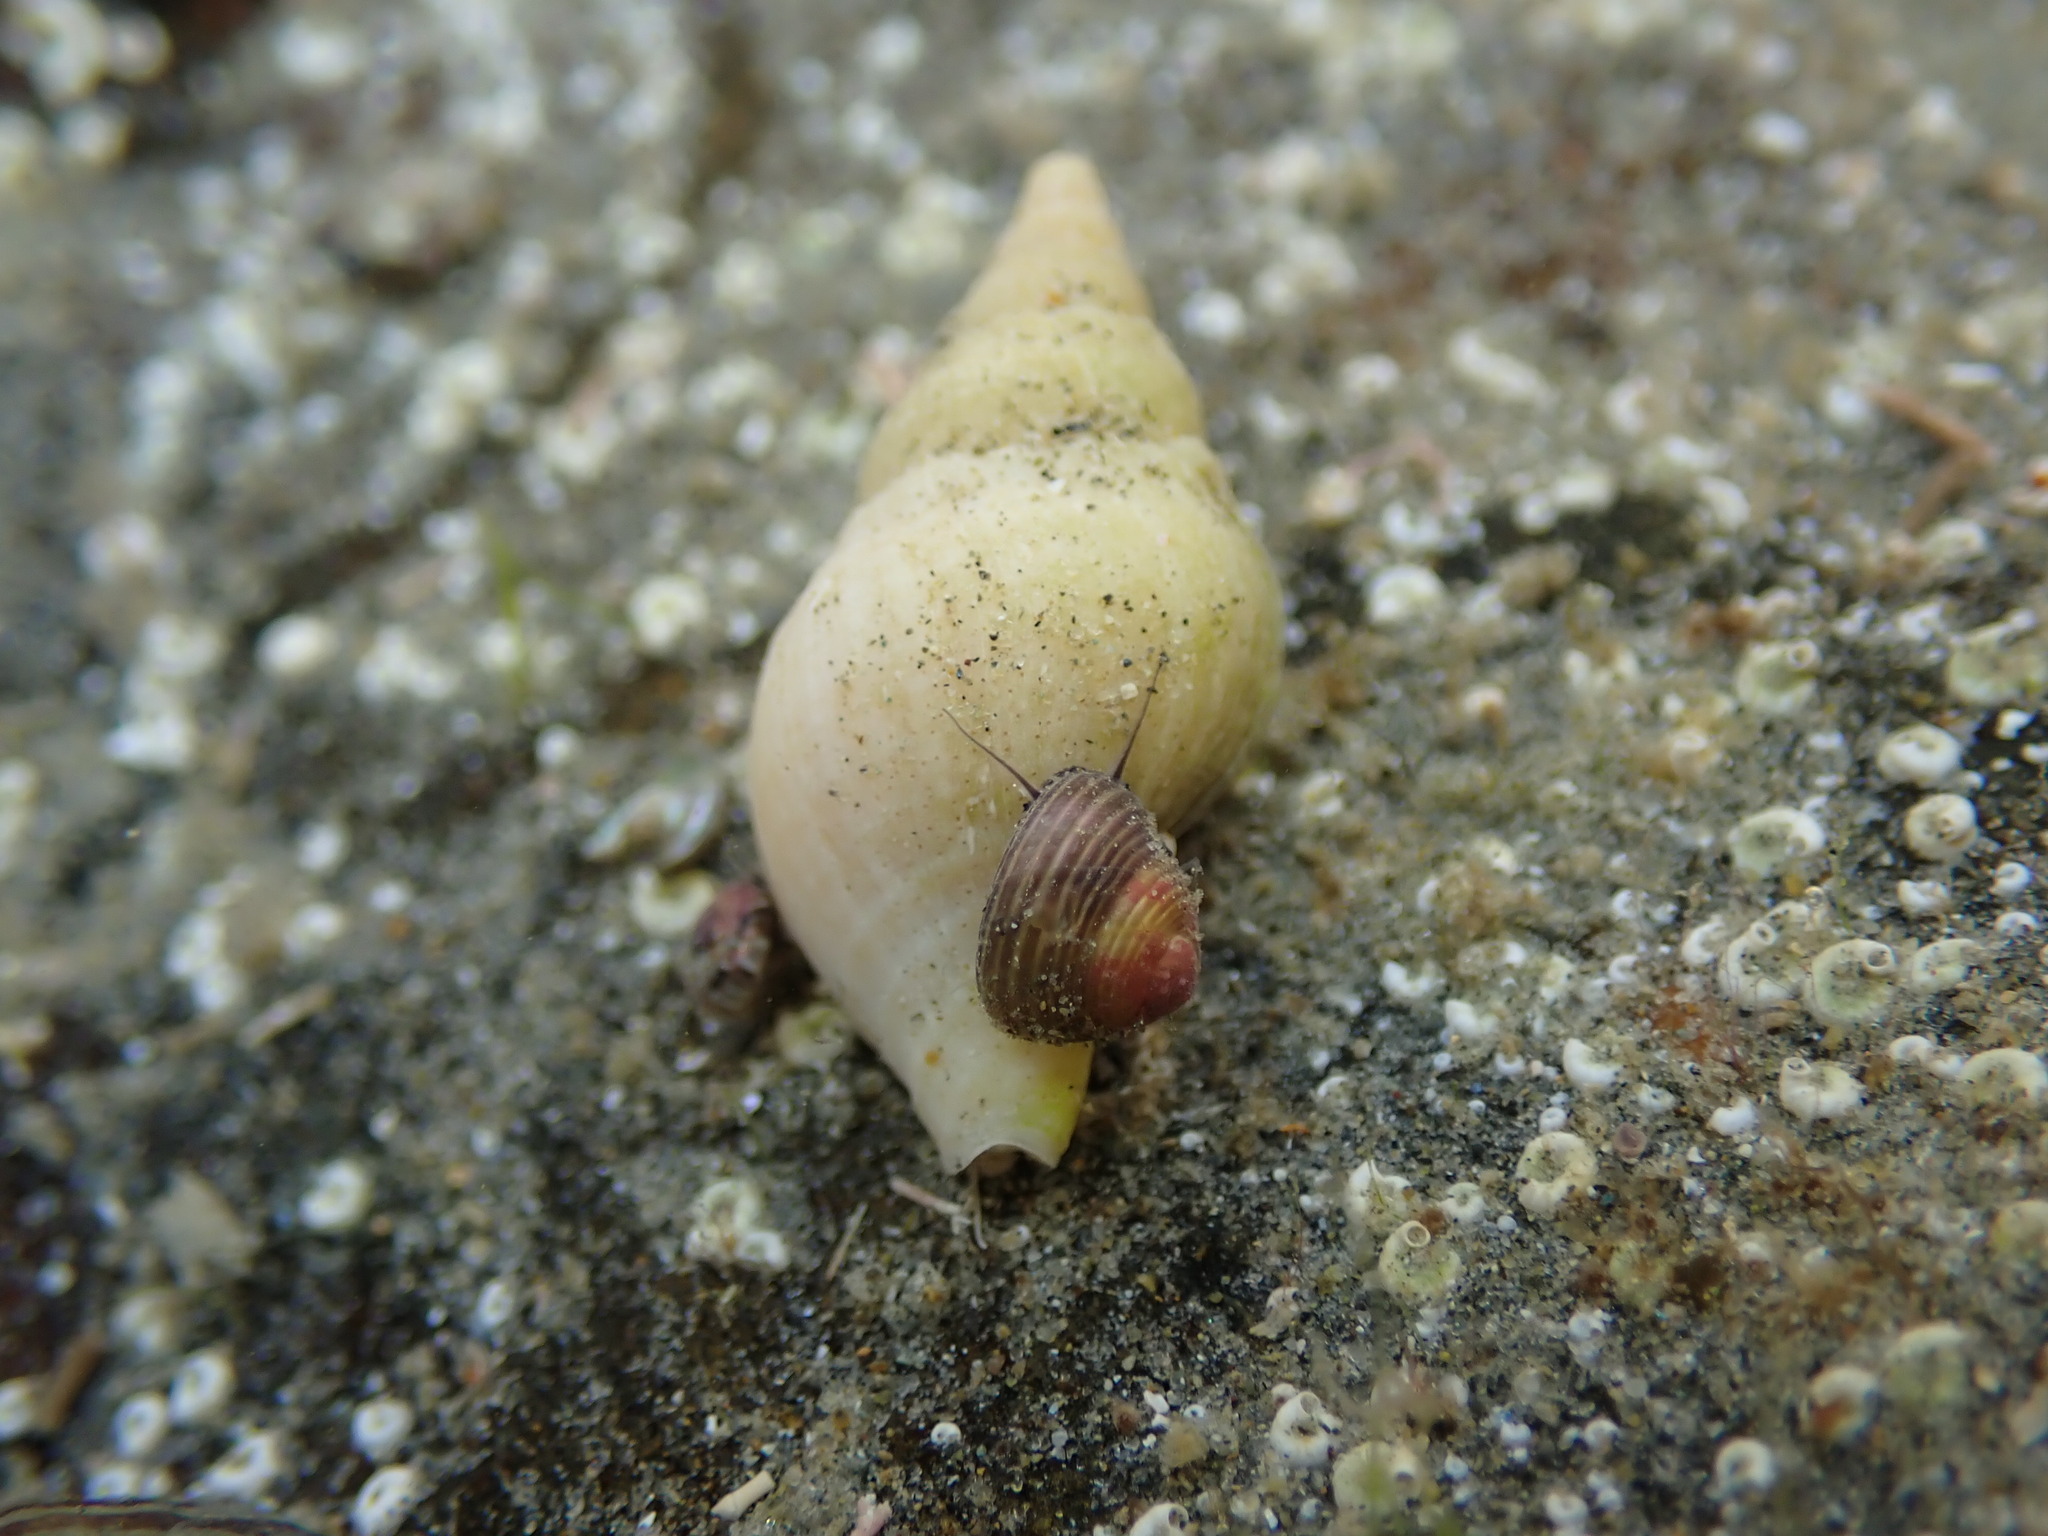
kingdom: Animalia
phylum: Mollusca
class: Gastropoda
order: Trochida
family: Trochidae
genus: Micrelenchus
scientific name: Micrelenchus tenebrosus
